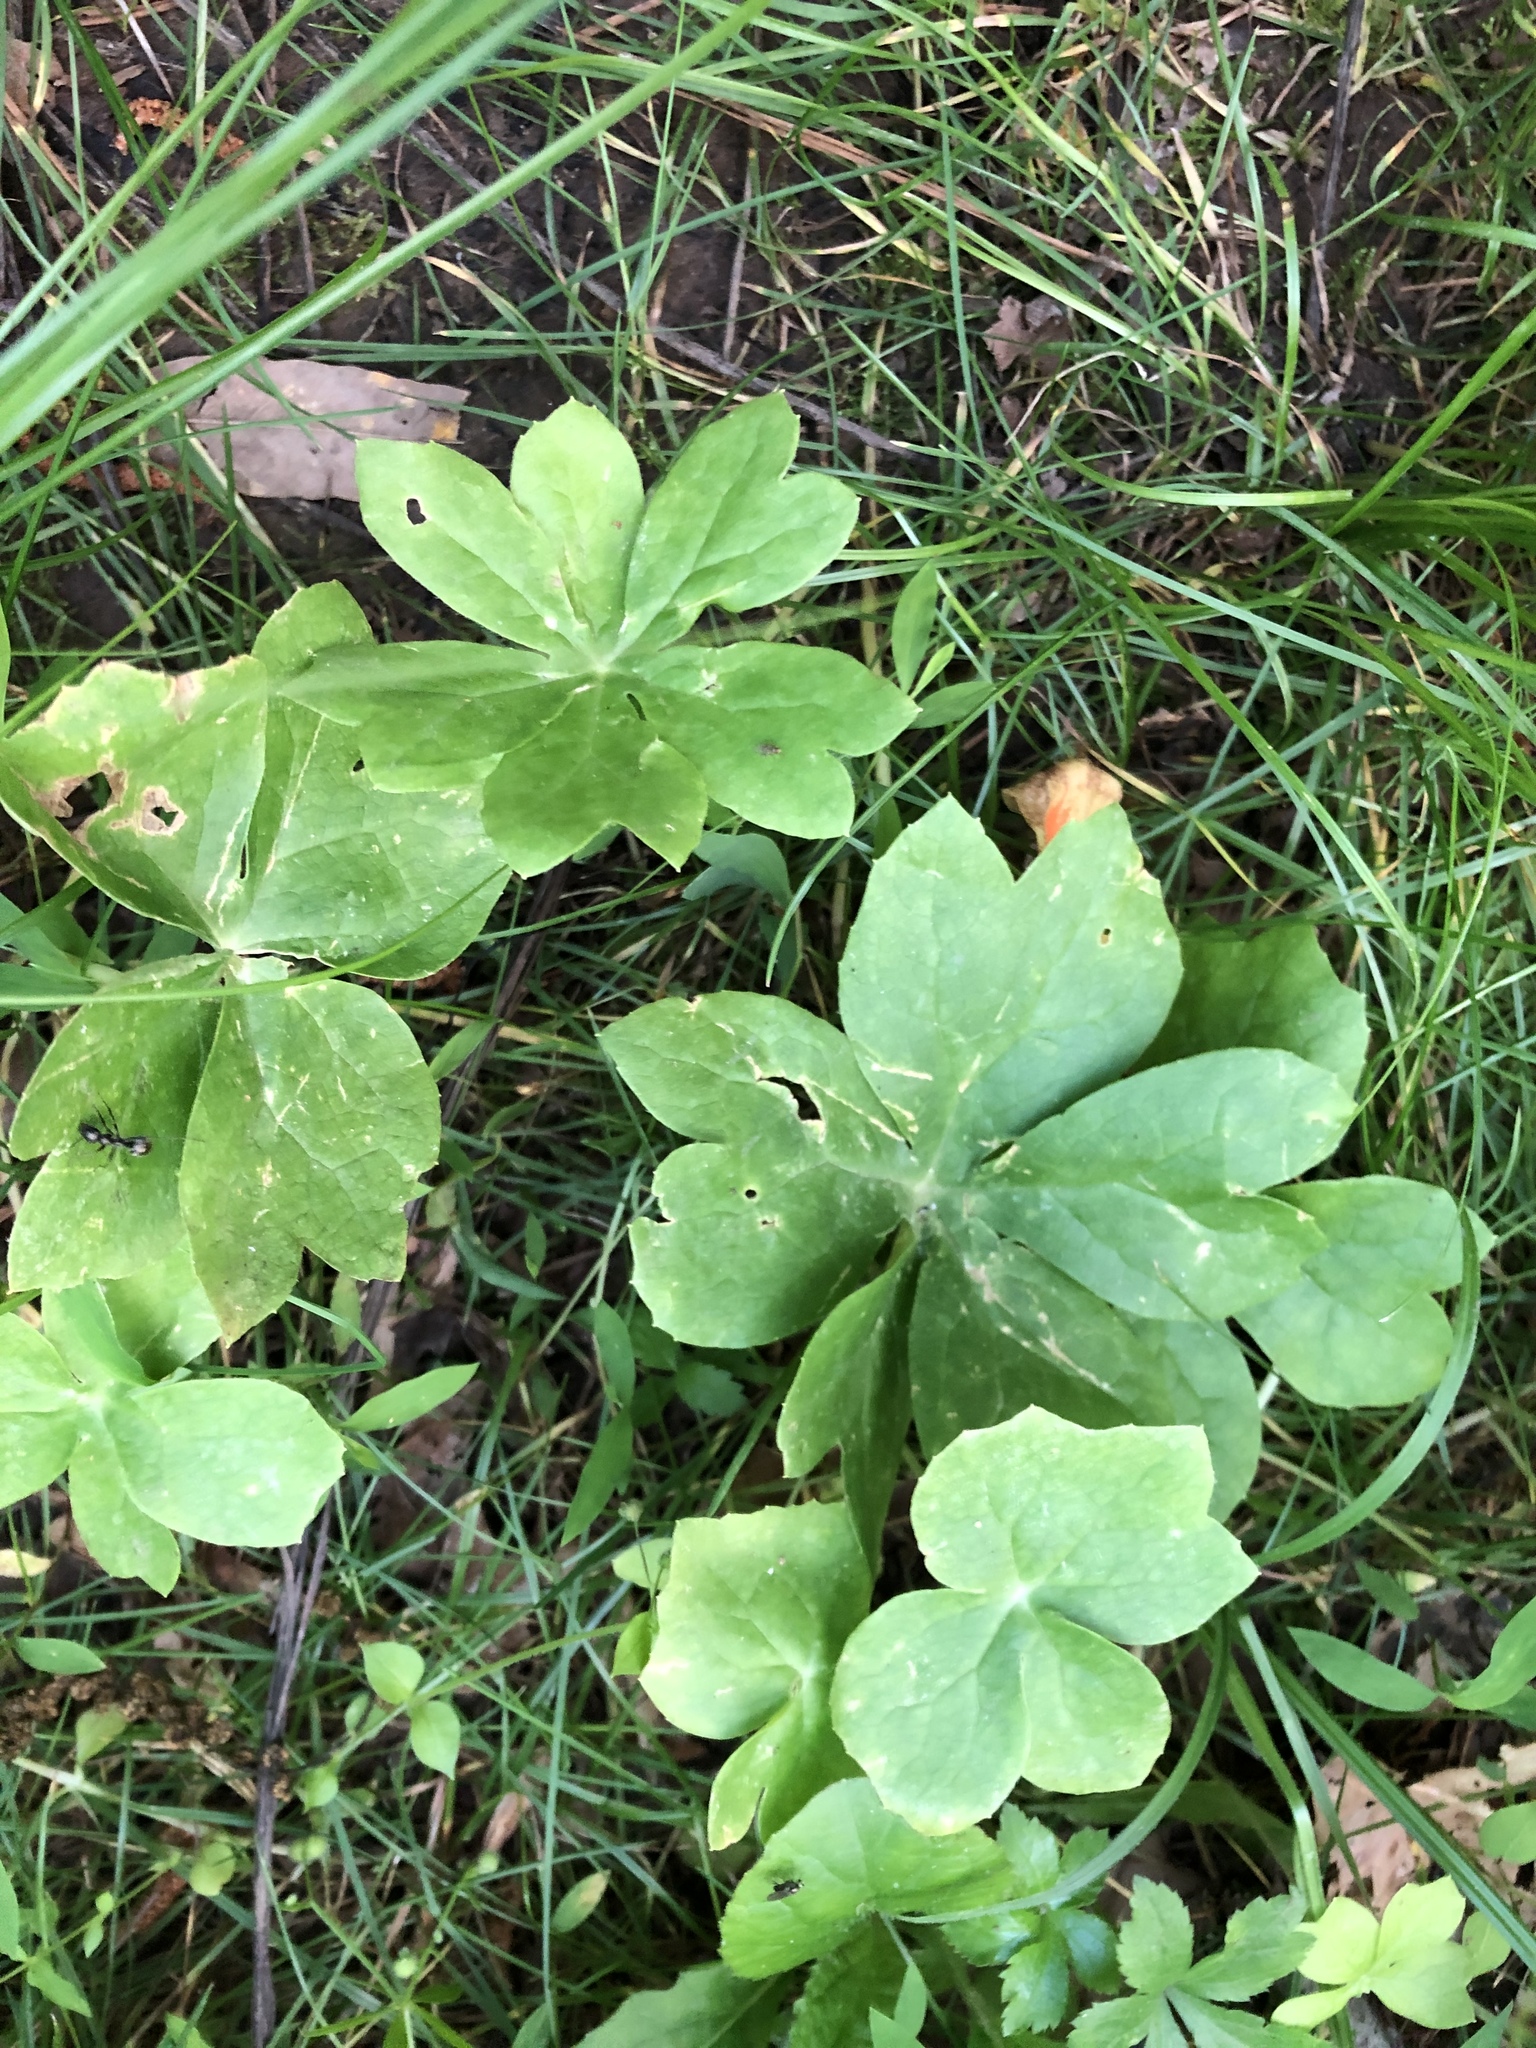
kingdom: Plantae
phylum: Tracheophyta
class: Magnoliopsida
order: Ranunculales
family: Berberidaceae
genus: Podophyllum
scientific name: Podophyllum peltatum
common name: Wild mandrake
